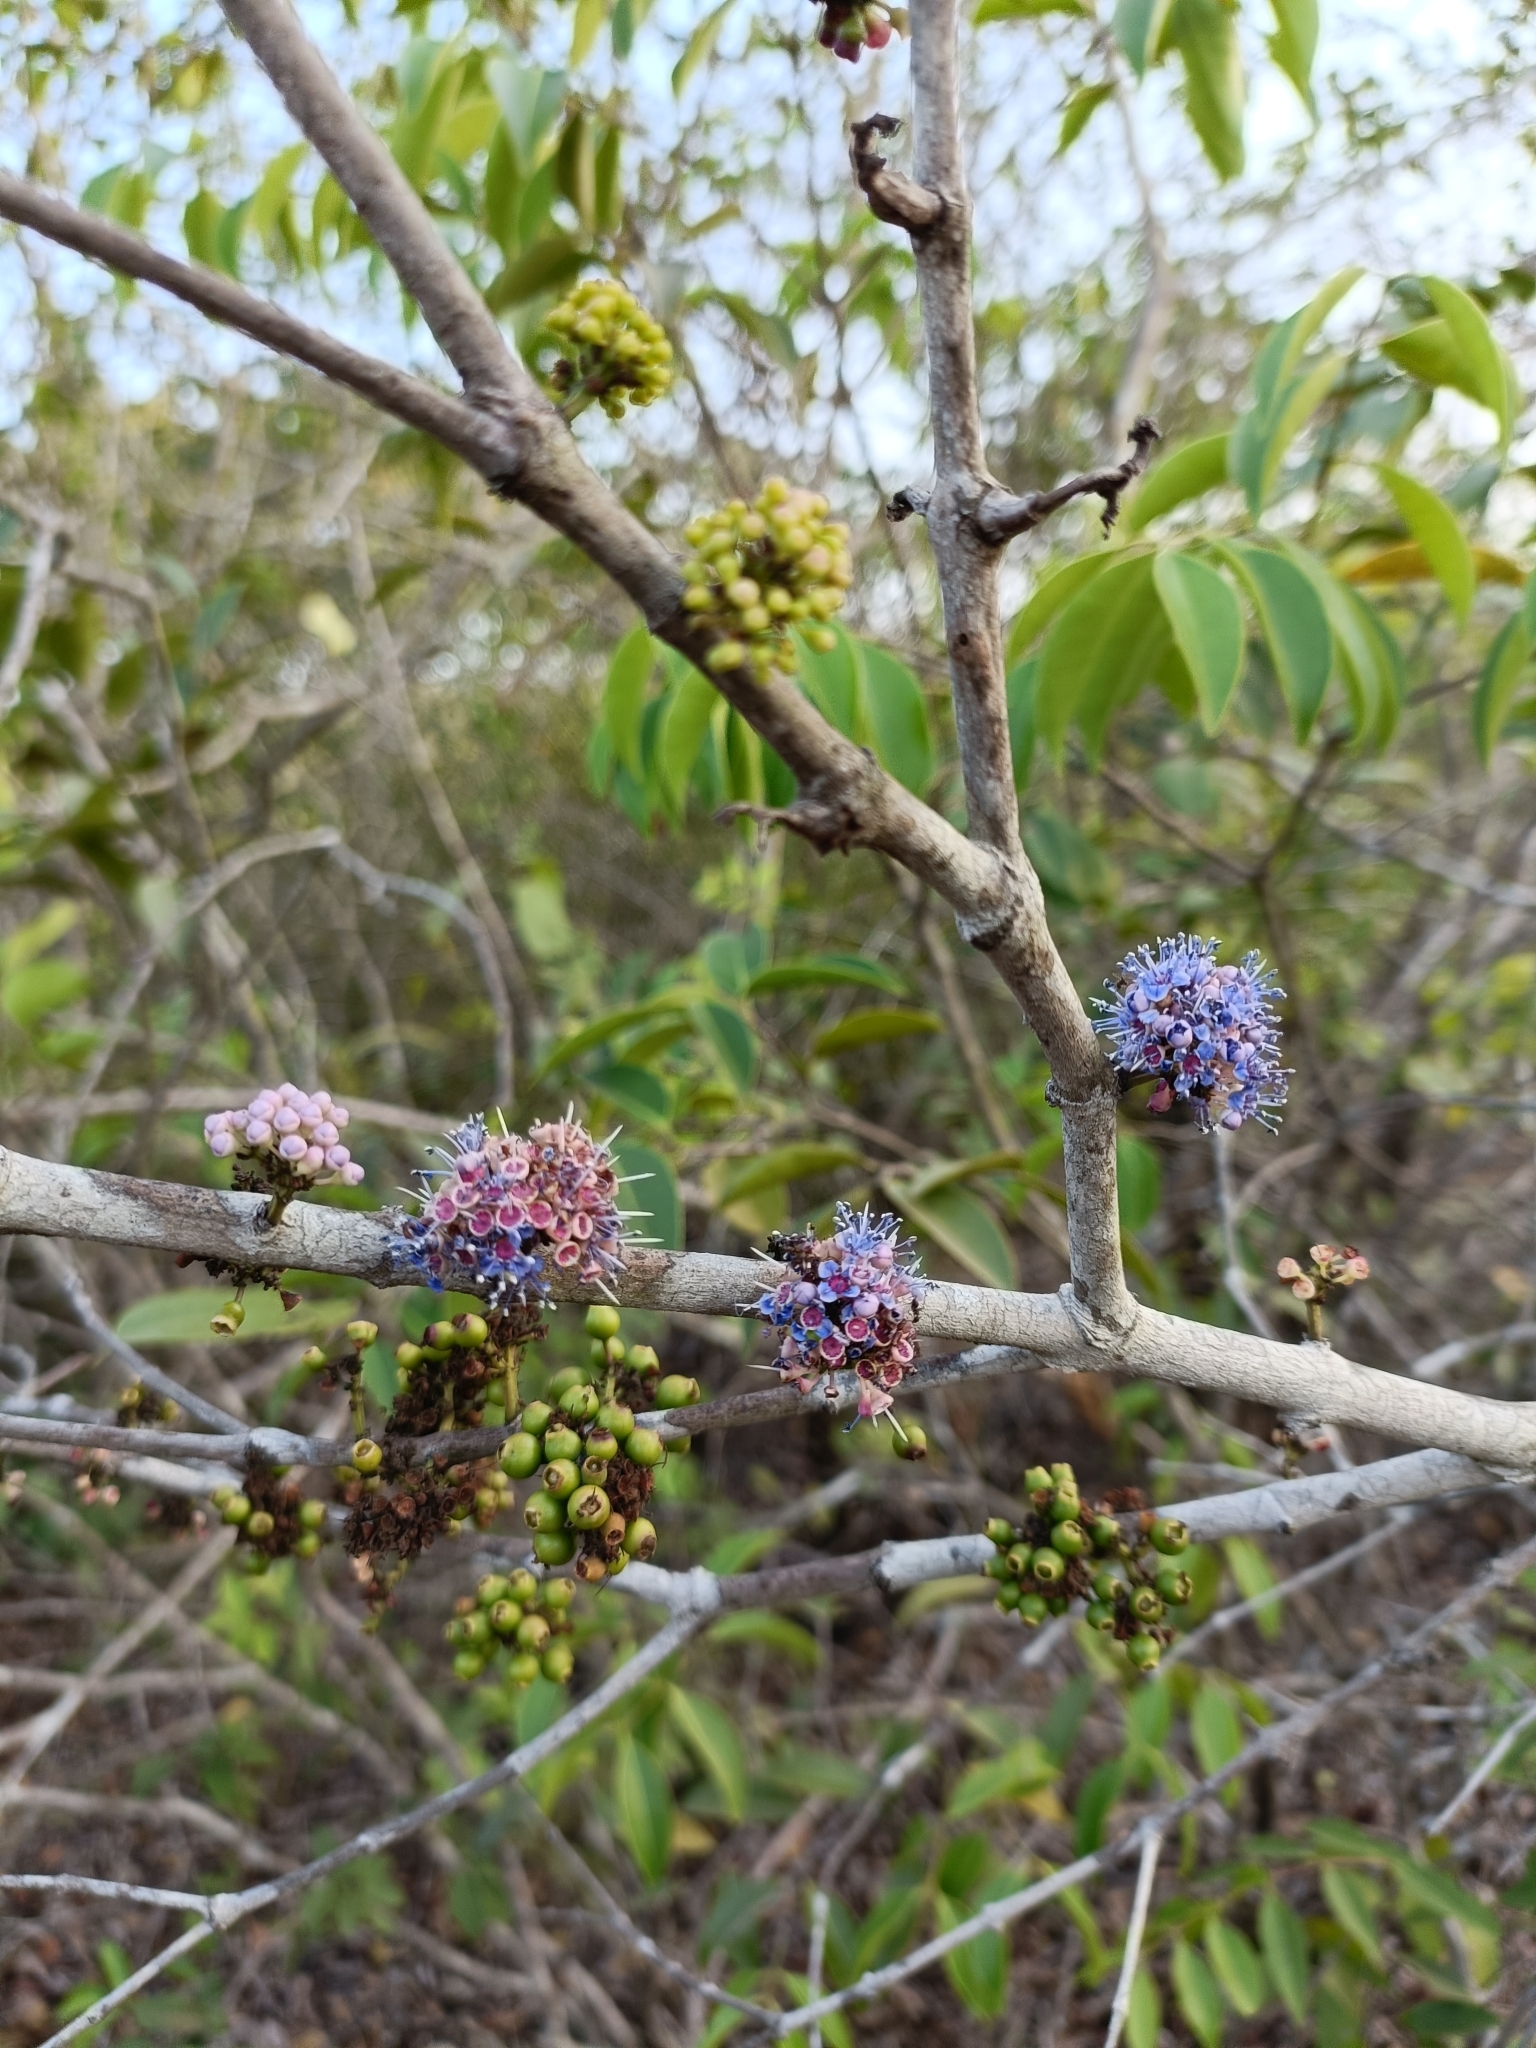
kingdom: Plantae
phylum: Tracheophyta
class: Magnoliopsida
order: Myrtales
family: Melastomataceae
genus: Memecylon
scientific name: Memecylon umbellatum
